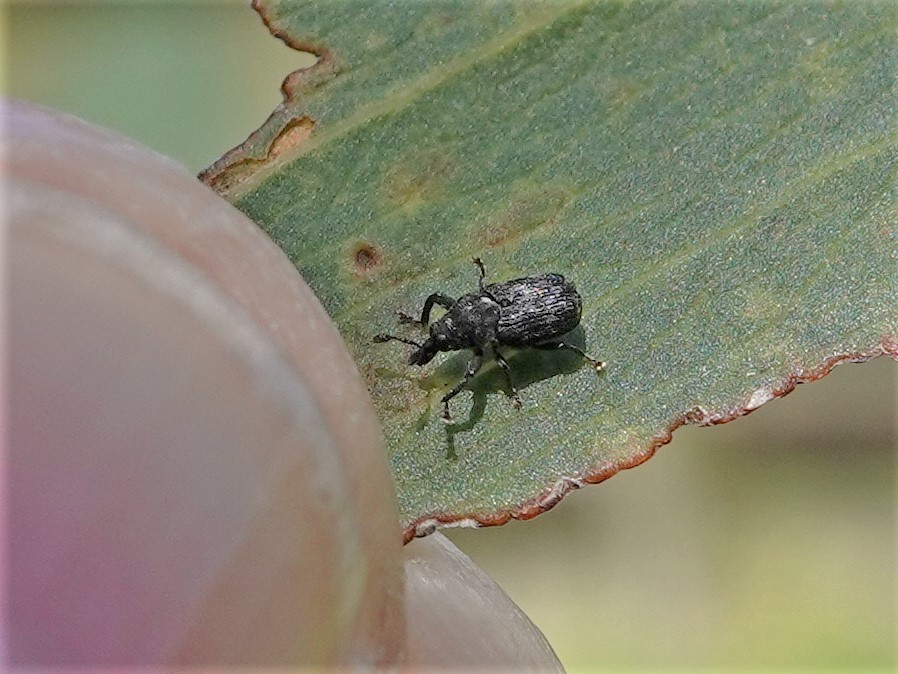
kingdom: Animalia
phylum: Arthropoda
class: Insecta
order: Coleoptera
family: Curculionidae
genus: Neolaemosaccus
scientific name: Neolaemosaccus narinus
